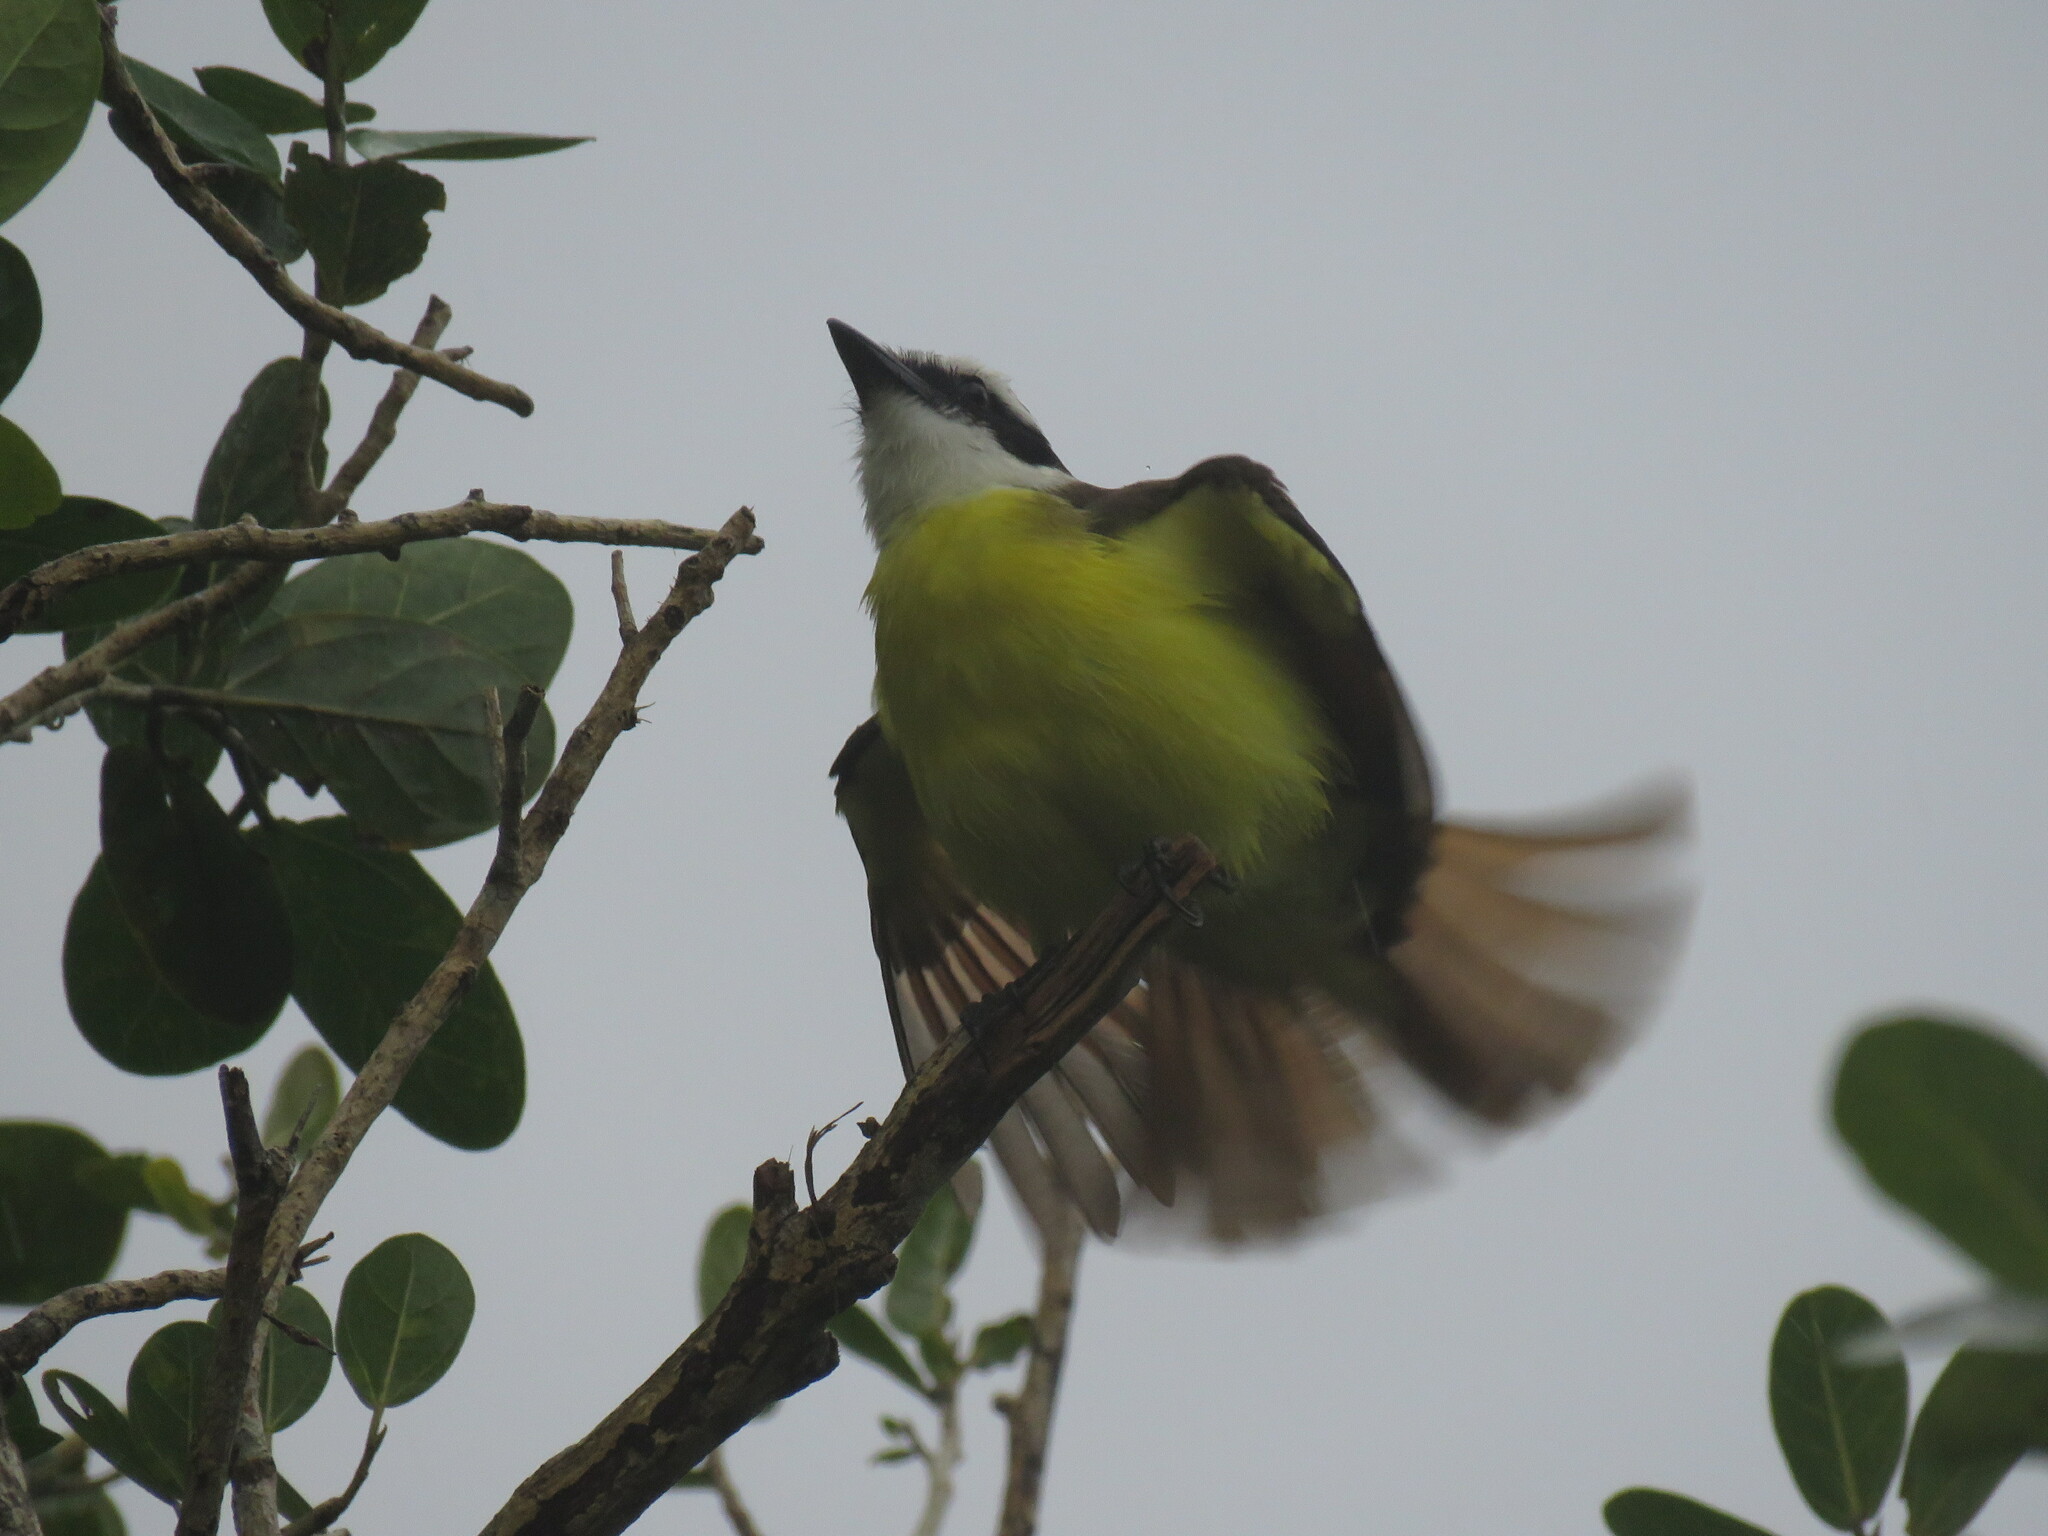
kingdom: Animalia
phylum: Chordata
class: Aves
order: Passeriformes
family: Tyrannidae
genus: Pitangus
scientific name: Pitangus sulphuratus
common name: Great kiskadee
